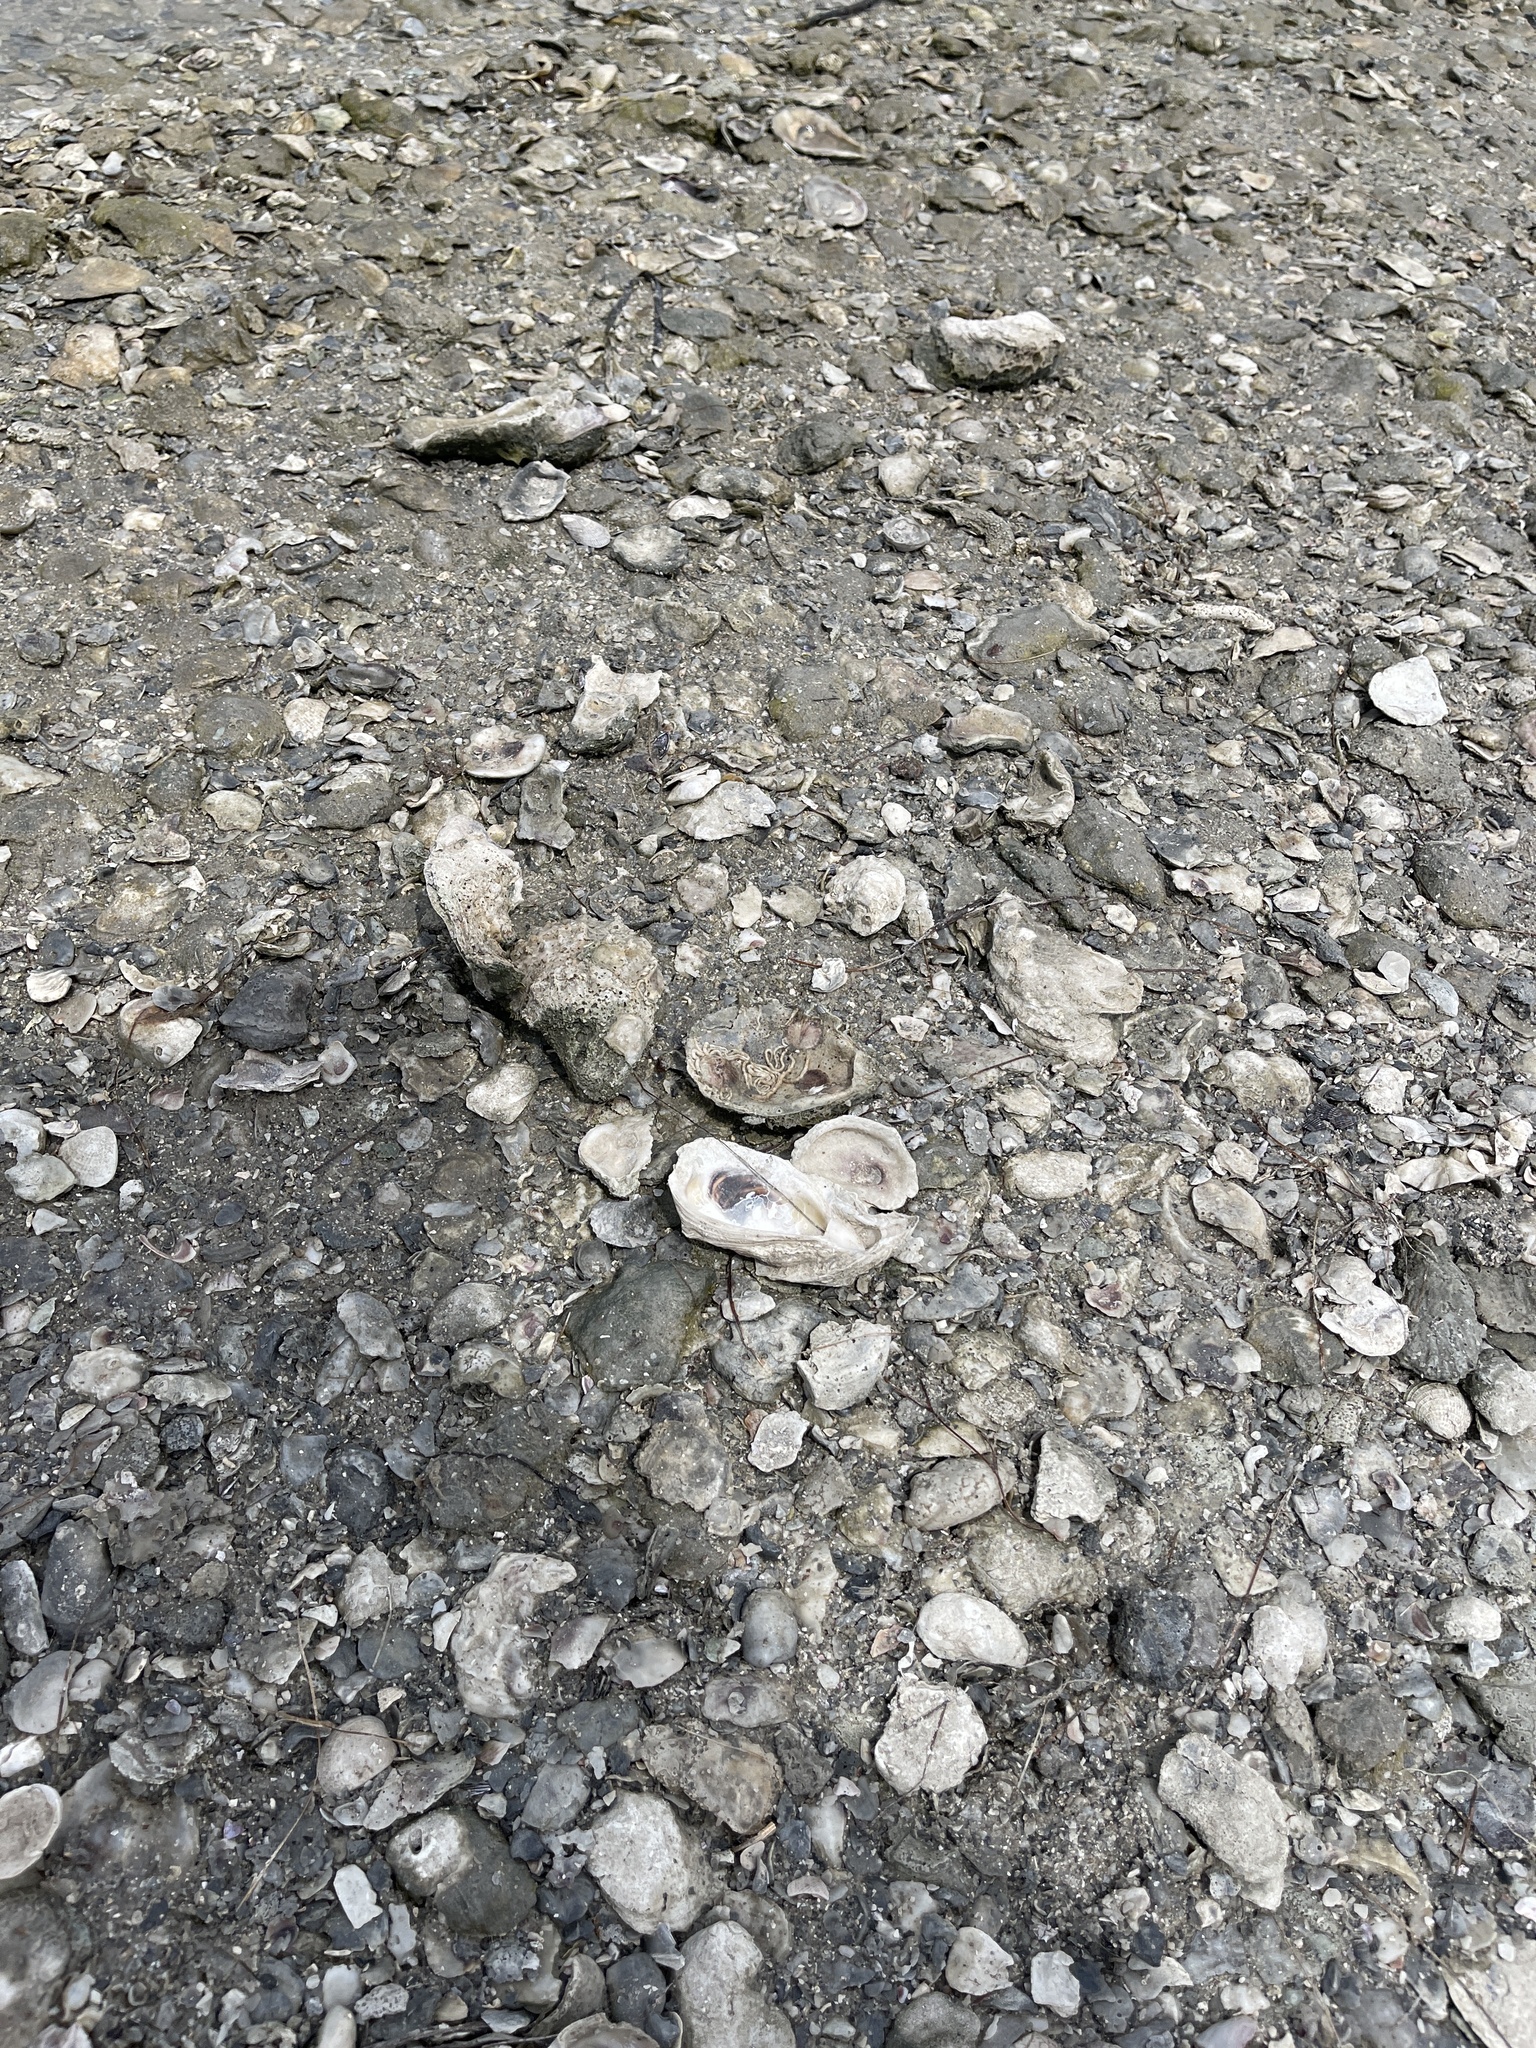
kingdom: Animalia
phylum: Mollusca
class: Bivalvia
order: Ostreida
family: Ostreidae
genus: Crassostrea
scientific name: Crassostrea virginica
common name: American oyster
